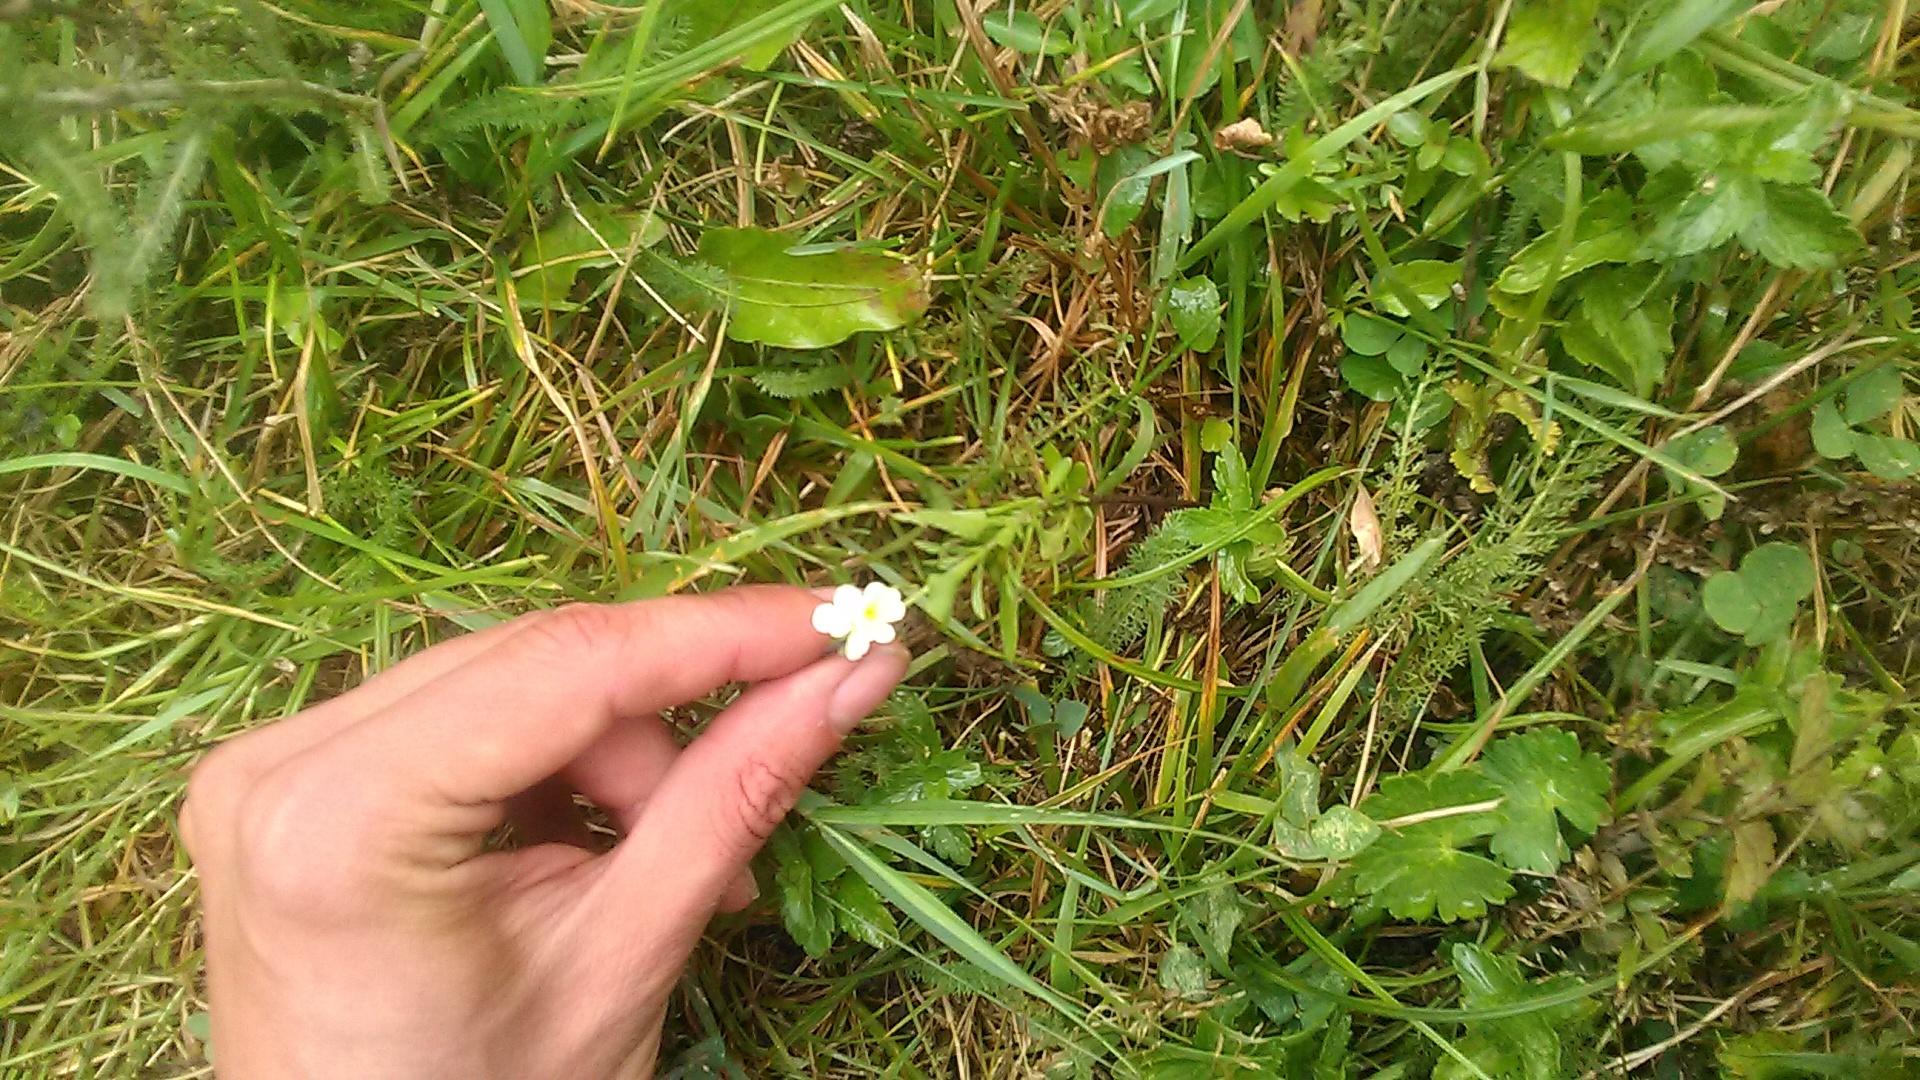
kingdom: Plantae
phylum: Tracheophyta
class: Magnoliopsida
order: Malpighiales
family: Violaceae
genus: Viola
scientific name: Viola arvensis
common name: Field pansy
